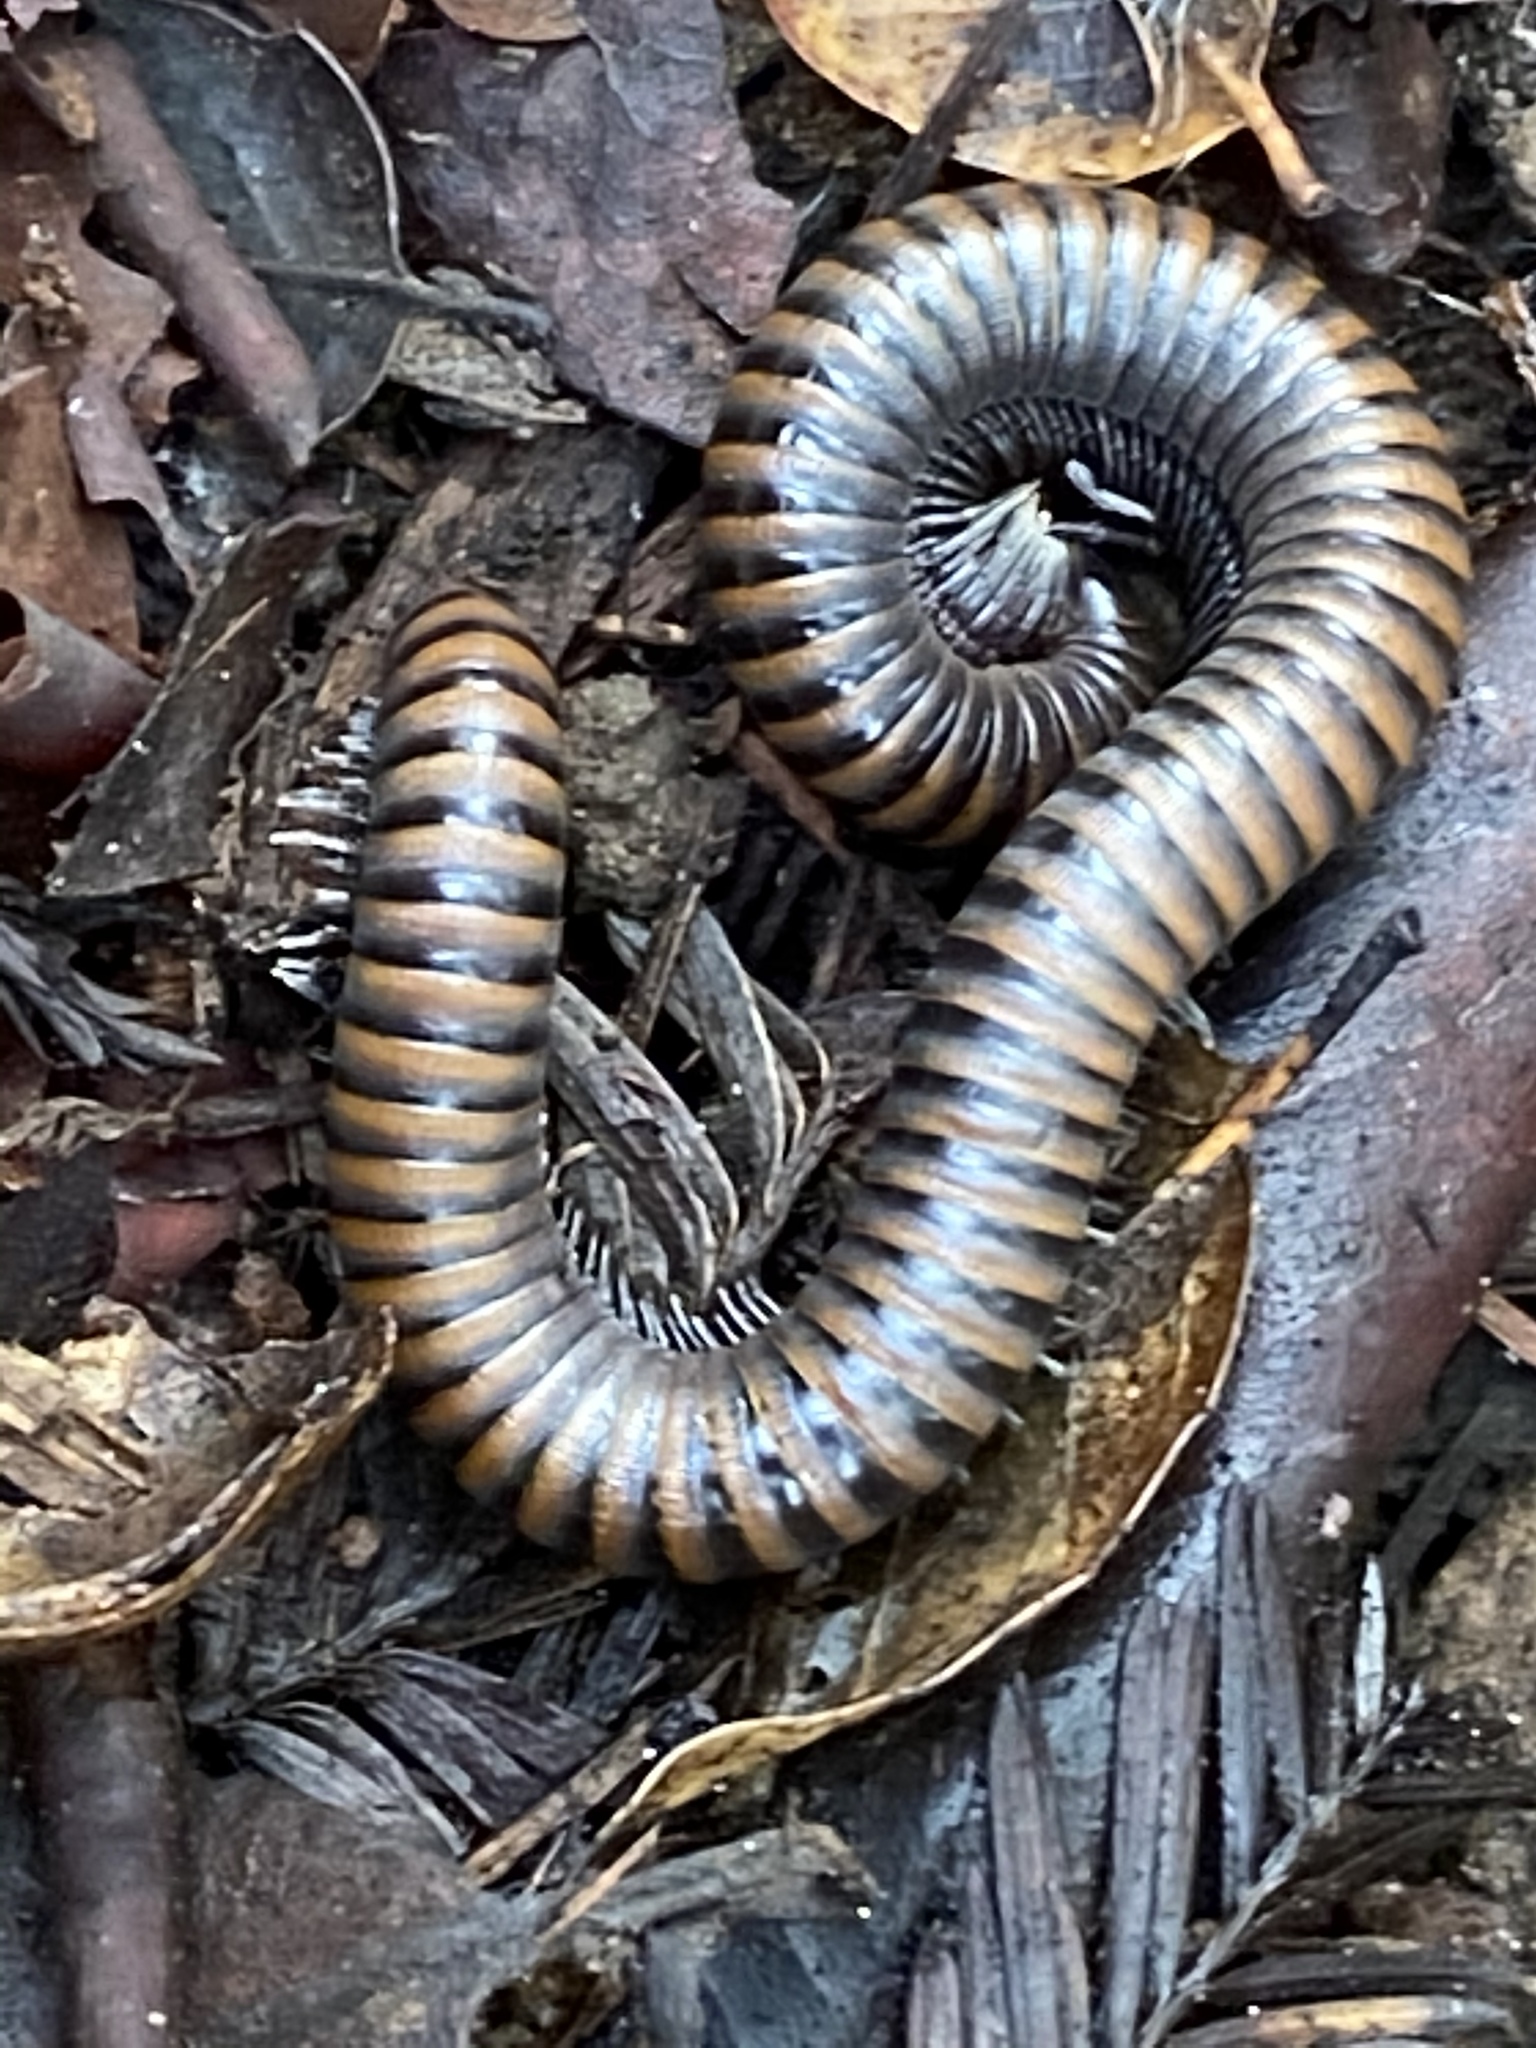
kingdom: Animalia
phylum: Arthropoda
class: Diplopoda
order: Julida
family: Paeromopodidae
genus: Paeromopus
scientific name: Paeromopus angusticeps
